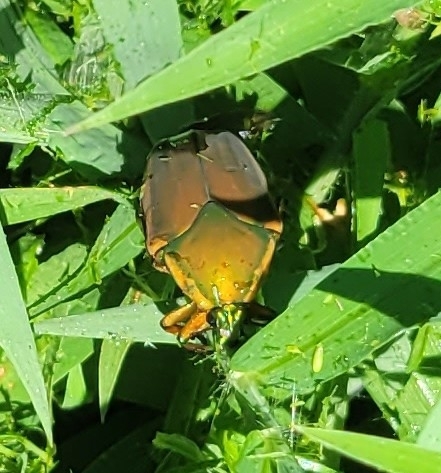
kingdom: Animalia
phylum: Arthropoda
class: Insecta
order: Coleoptera
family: Scarabaeidae
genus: Cotinis
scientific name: Cotinis nitida
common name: Common green june beetle
